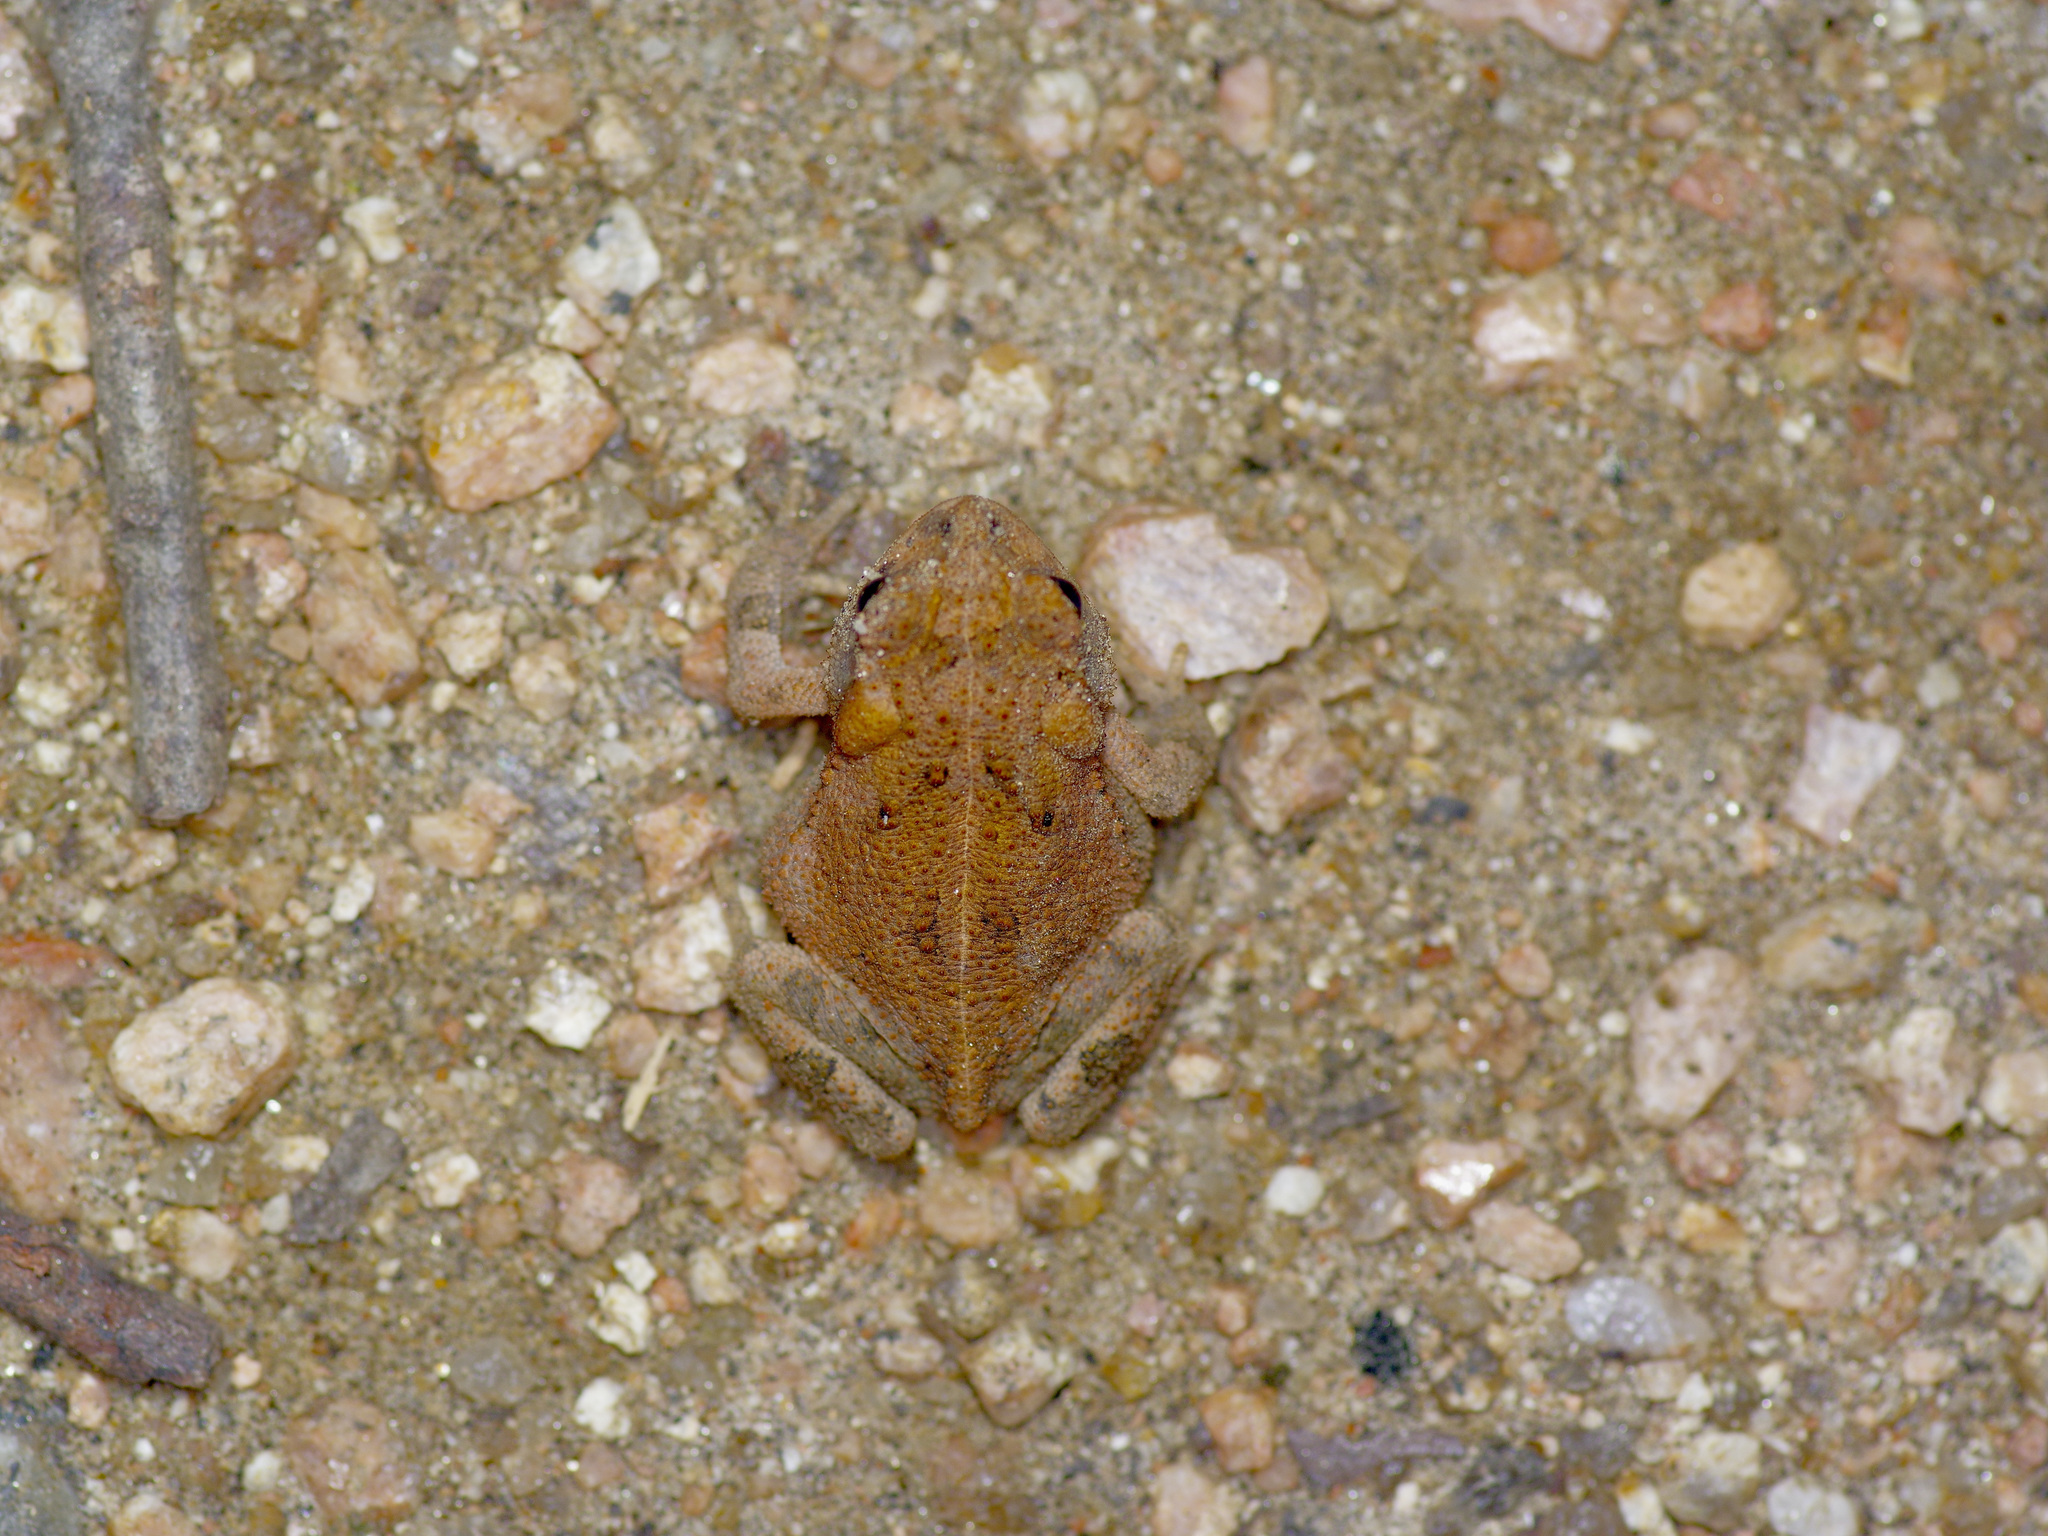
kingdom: Animalia
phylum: Chordata
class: Amphibia
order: Anura
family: Bufonidae
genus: Incilius
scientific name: Incilius nebulifer
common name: Gulf coast toad
